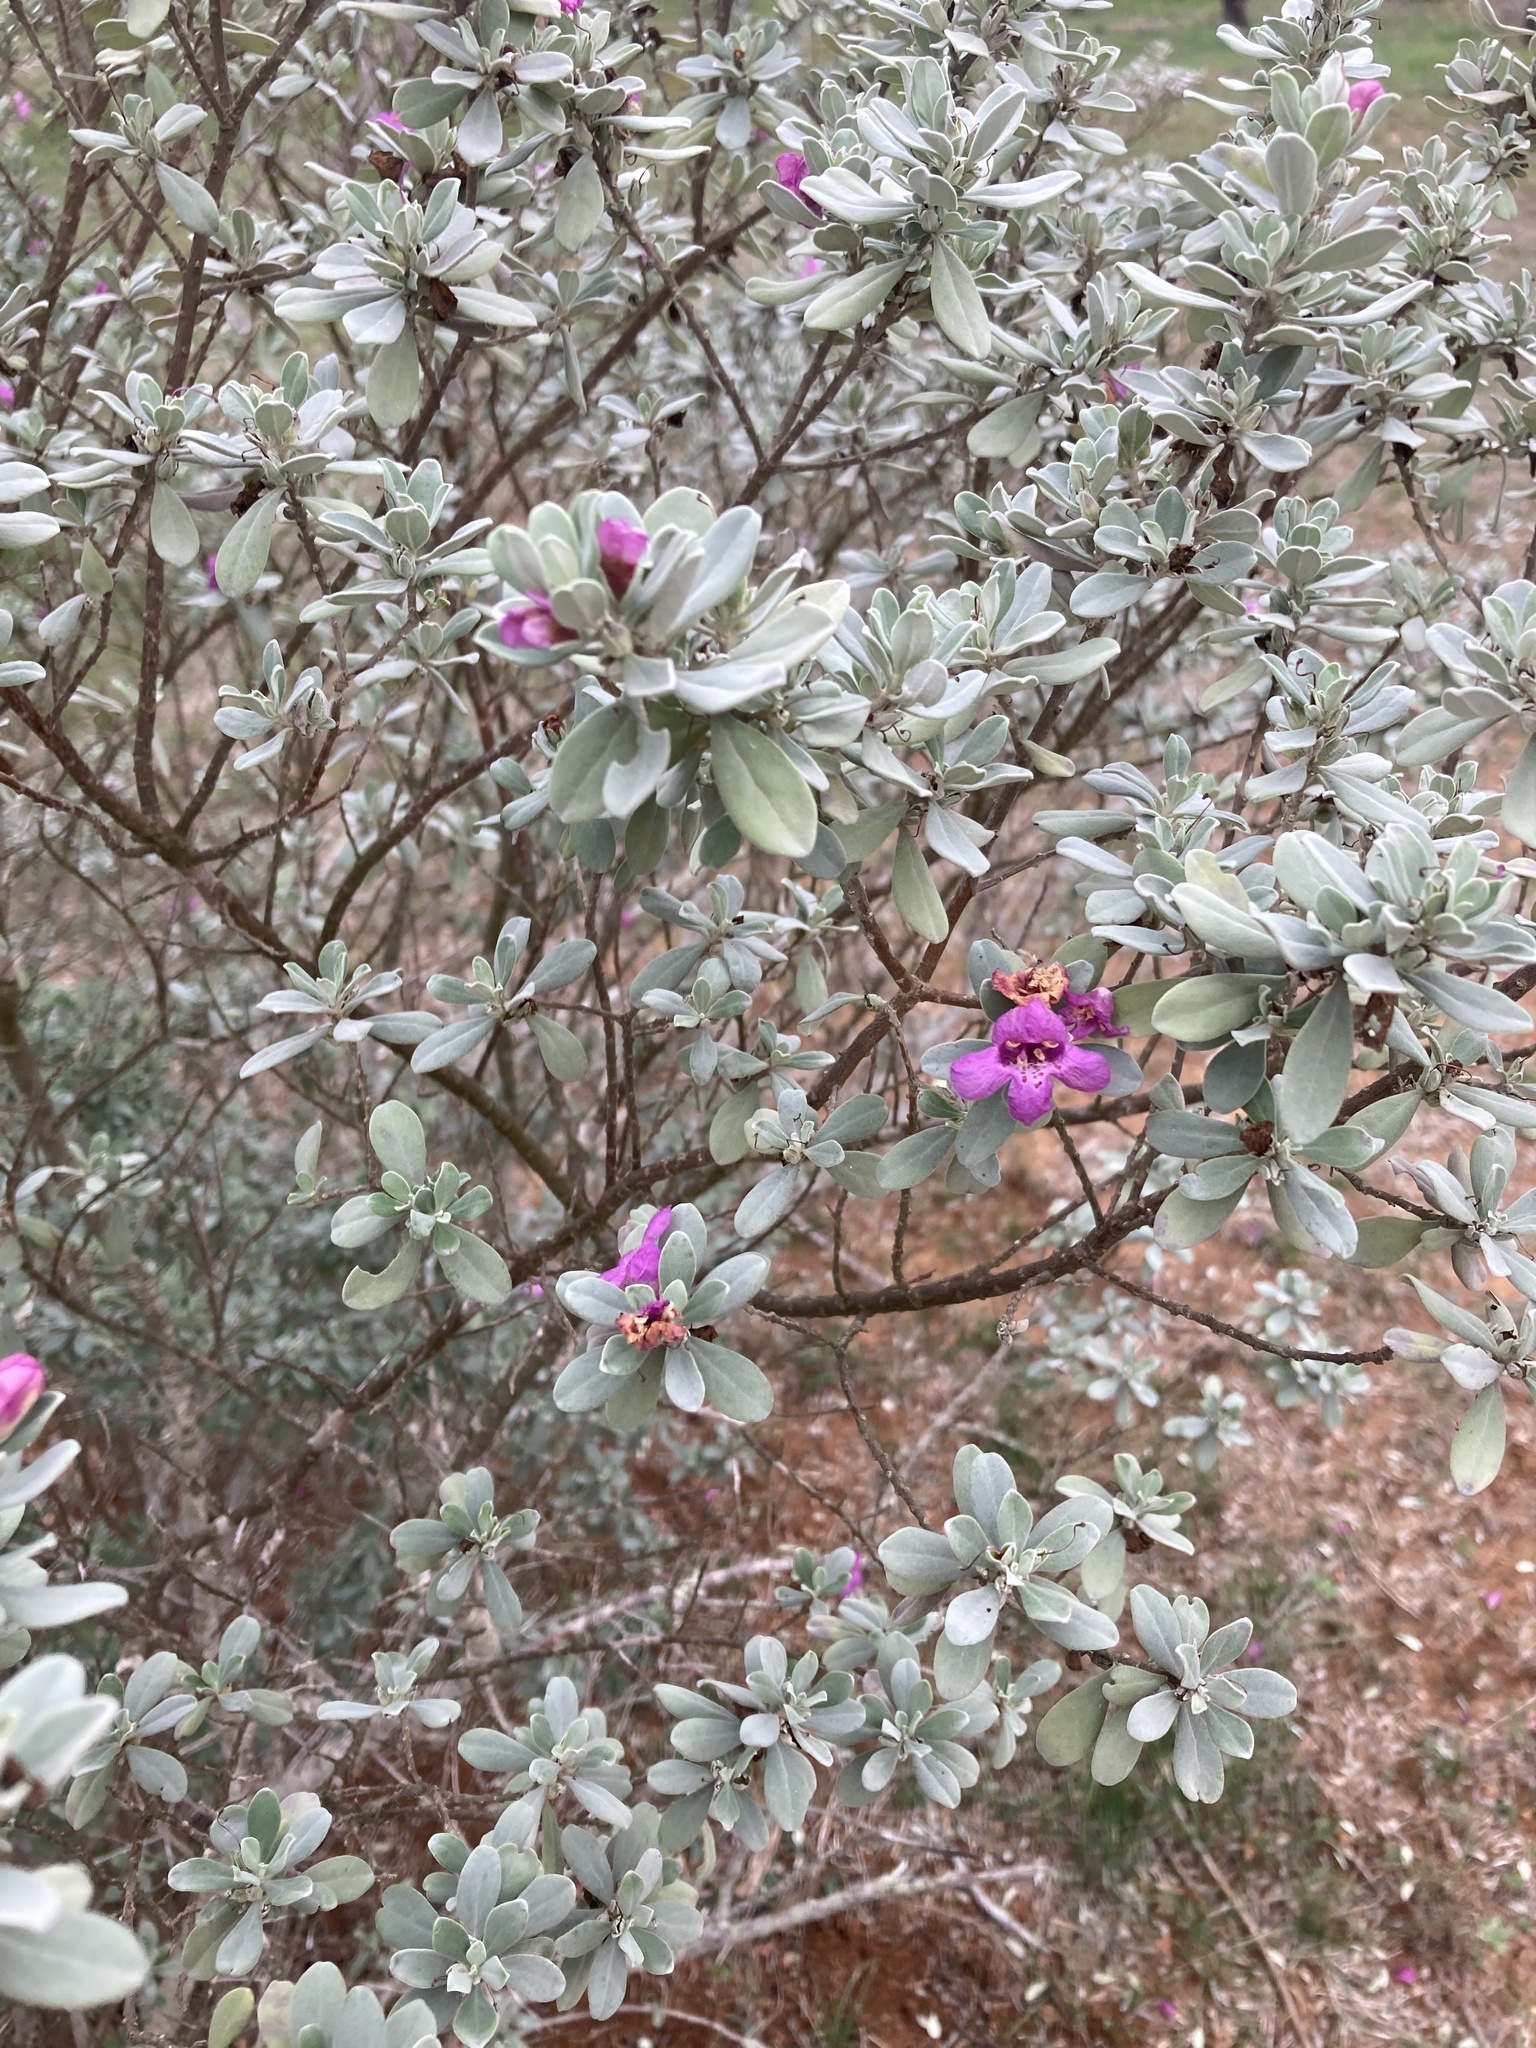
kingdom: Plantae
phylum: Tracheophyta
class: Magnoliopsida
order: Lamiales
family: Scrophulariaceae
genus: Leucophyllum
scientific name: Leucophyllum frutescens
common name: Texas silverleaf
